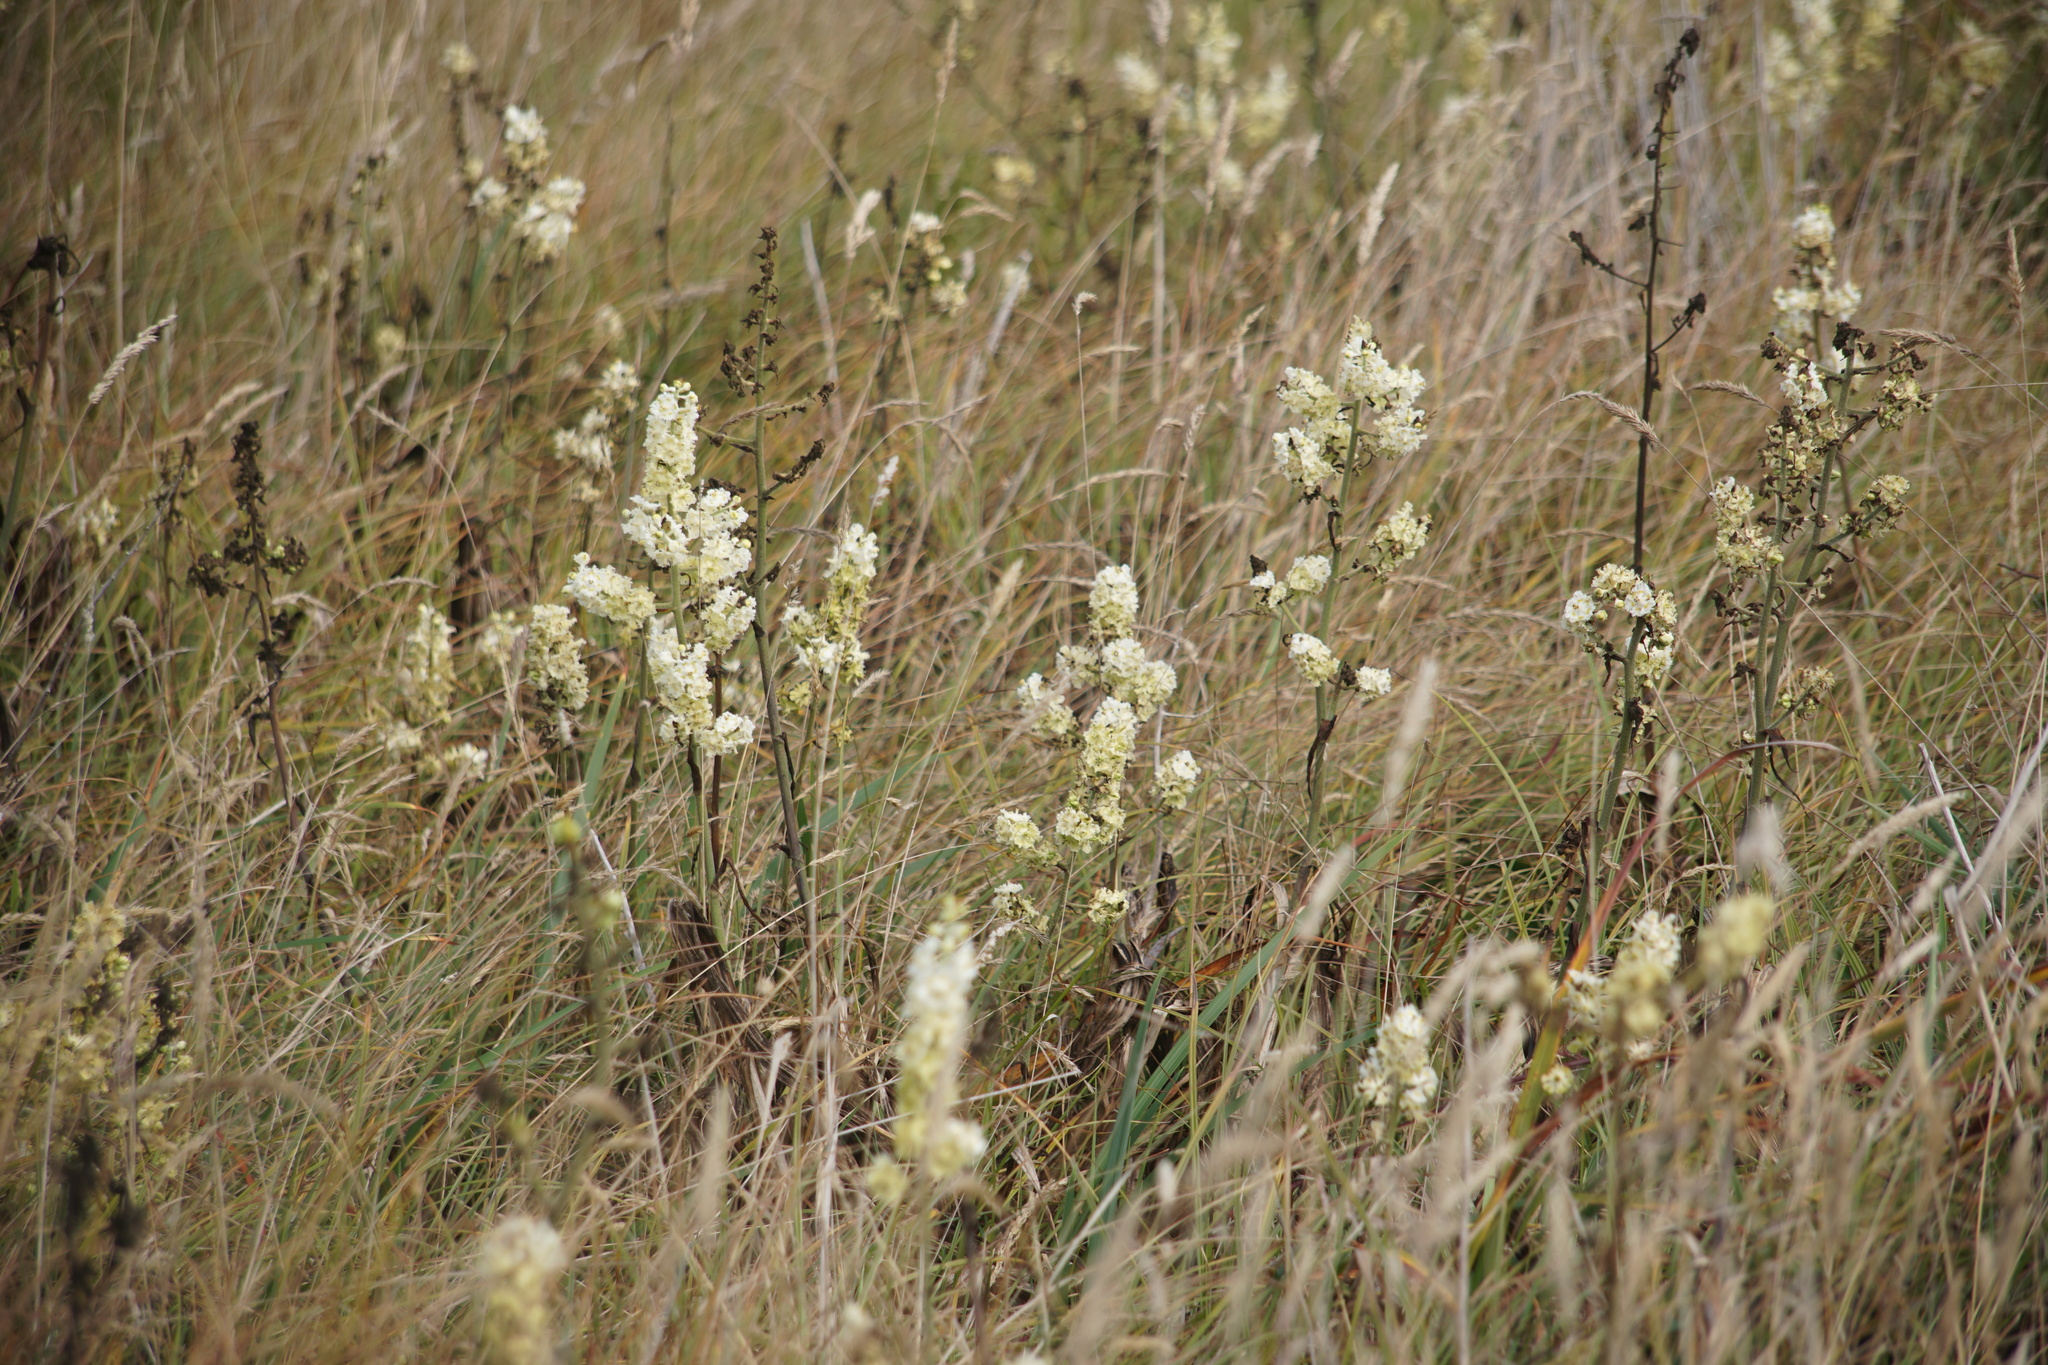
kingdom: Plantae
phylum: Tracheophyta
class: Liliopsida
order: Liliales
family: Melanthiaceae
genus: Veratrum
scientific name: Veratrum fimbriatum
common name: Fringe false hellobore
